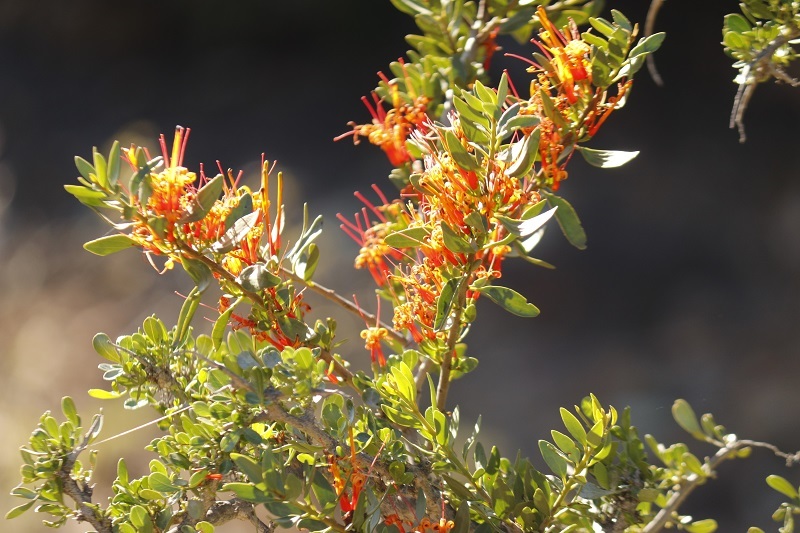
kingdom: Plantae
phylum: Tracheophyta
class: Magnoliopsida
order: Santalales
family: Loranthaceae
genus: Moquiniella
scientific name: Moquiniella rubra
